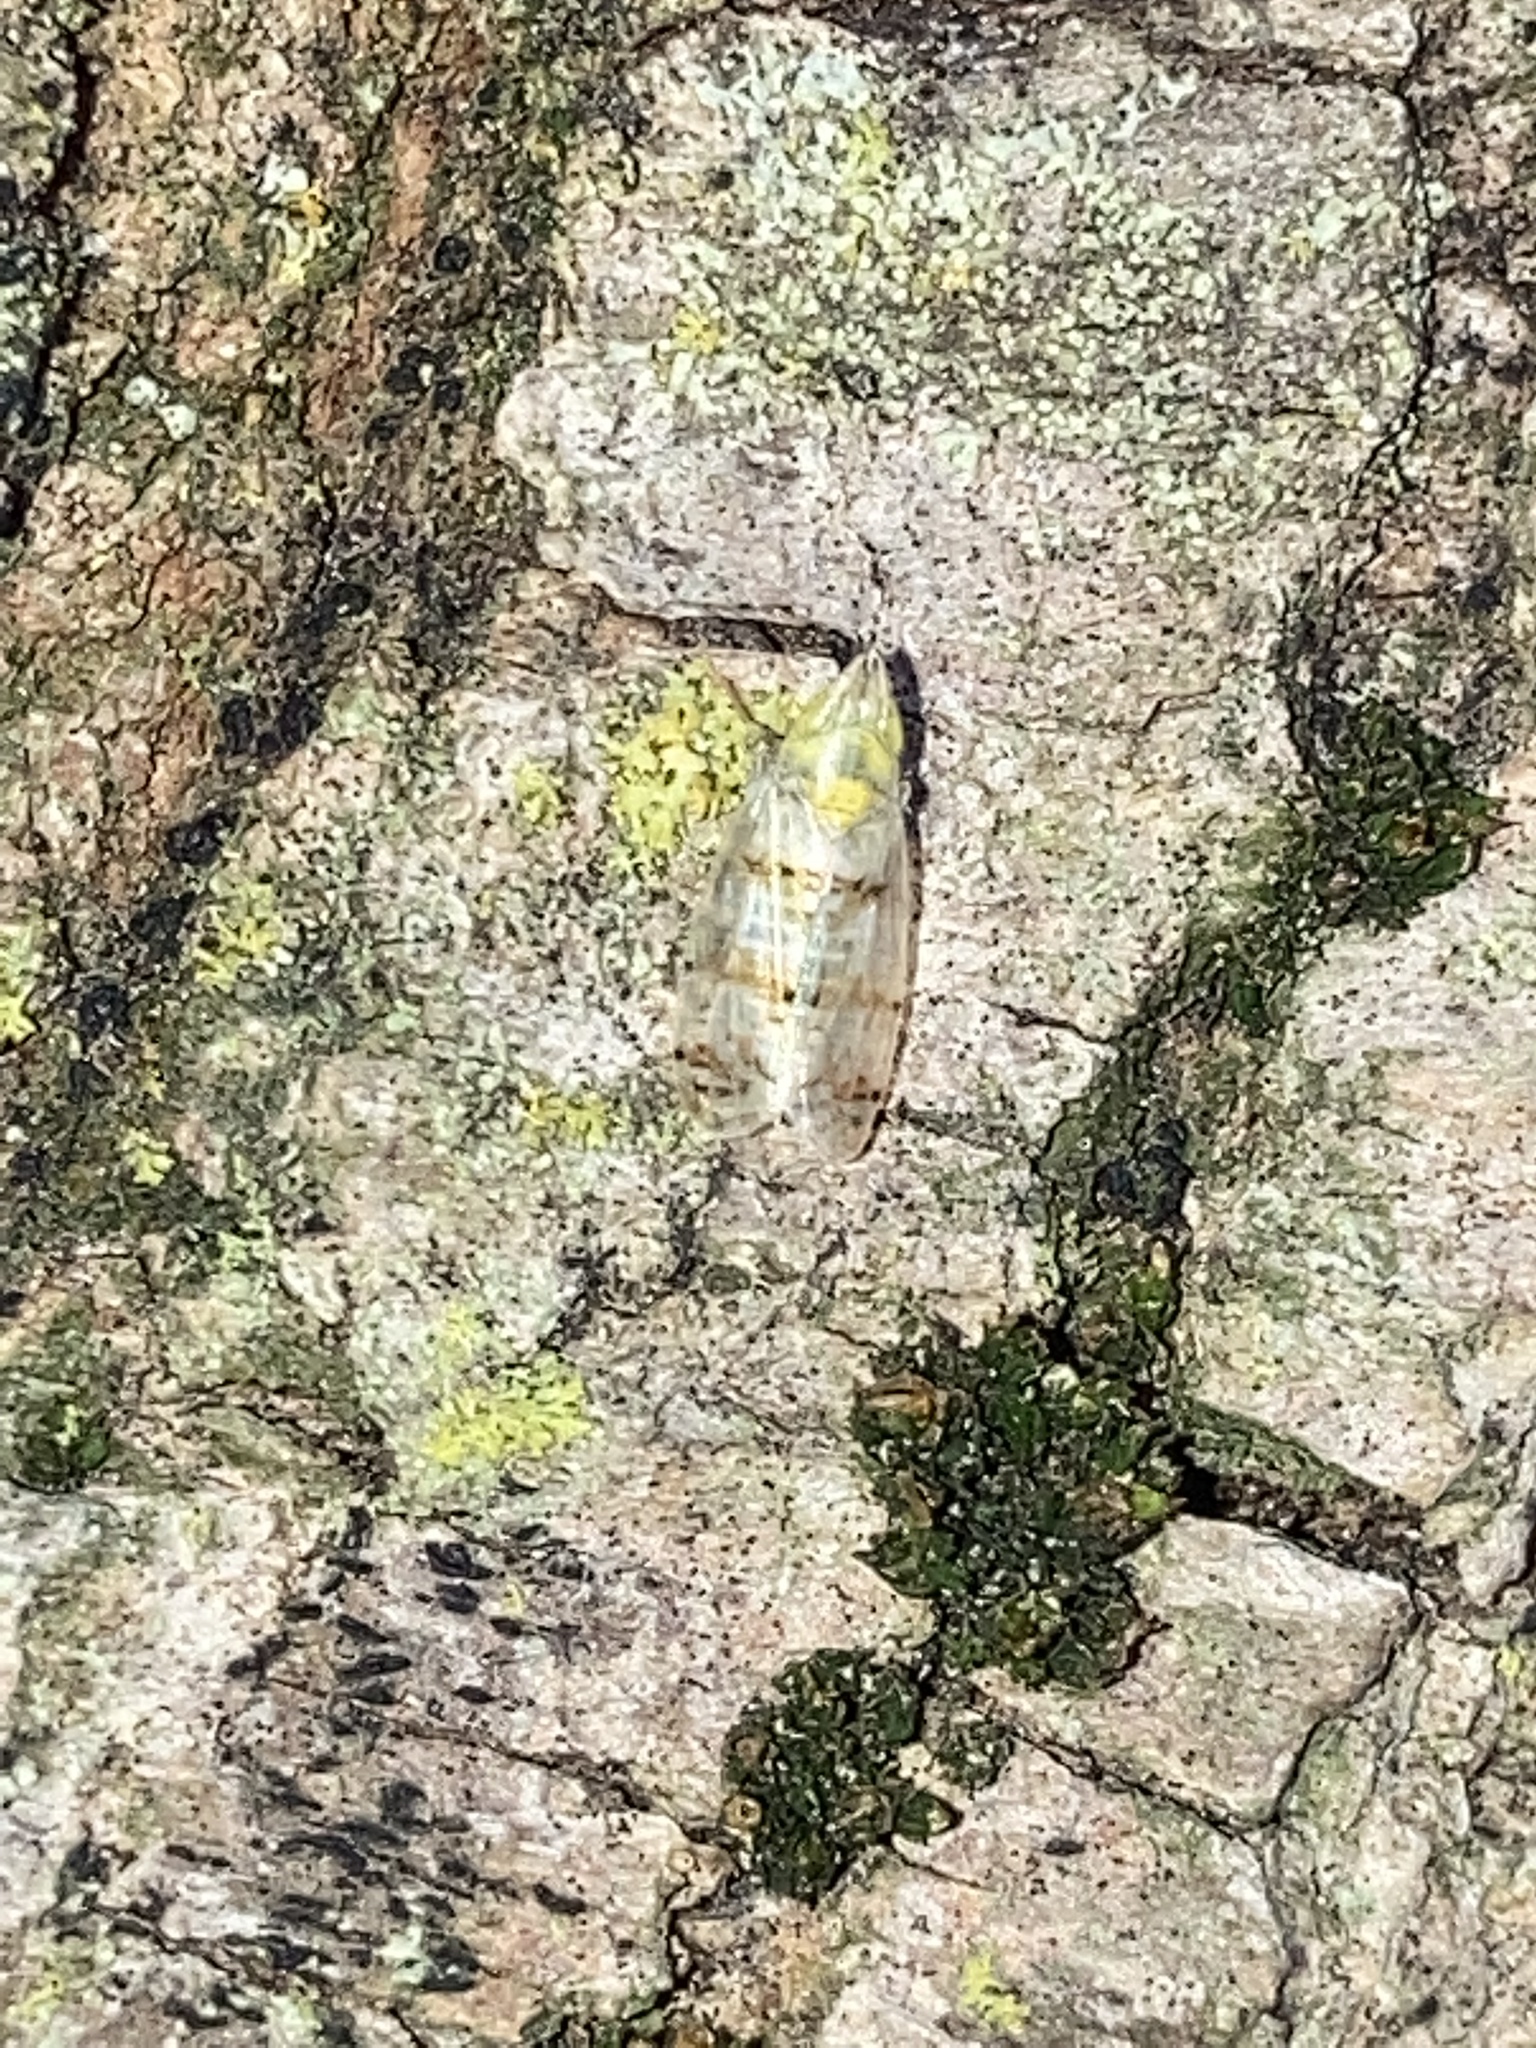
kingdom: Animalia
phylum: Arthropoda
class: Insecta
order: Hemiptera
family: Cicadellidae
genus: Japananus
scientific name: Japananus hyalinus
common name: The japanese maple leafhopper
